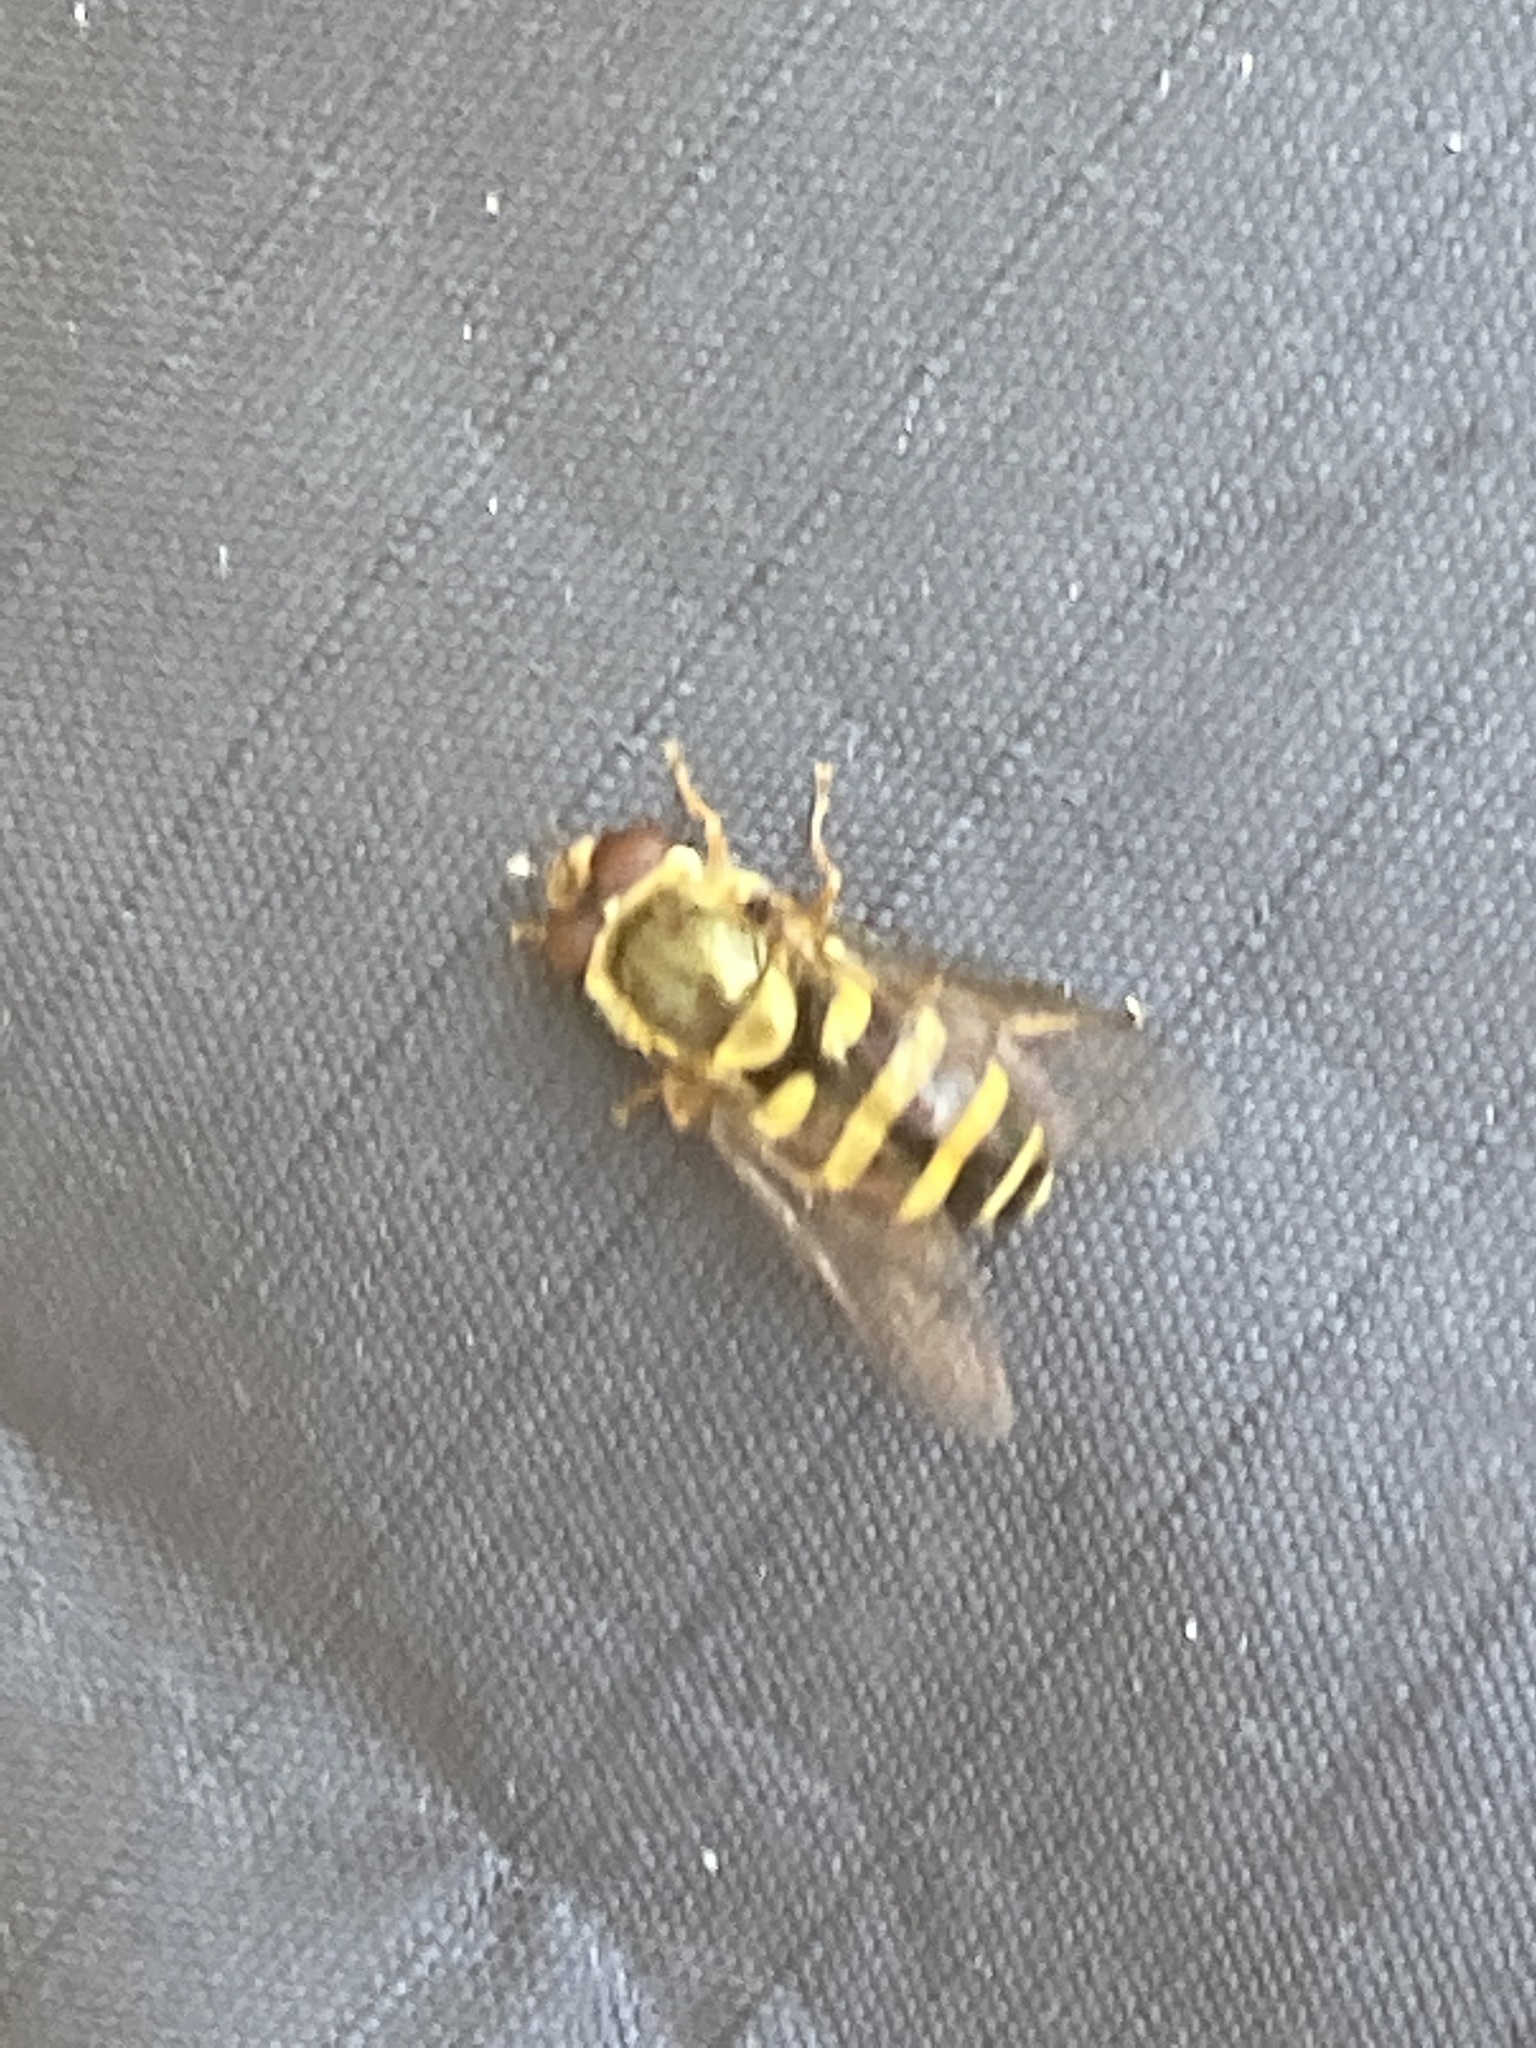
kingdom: Animalia
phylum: Arthropoda
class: Insecta
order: Diptera
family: Syrphidae
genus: Syrphus
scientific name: Syrphus
